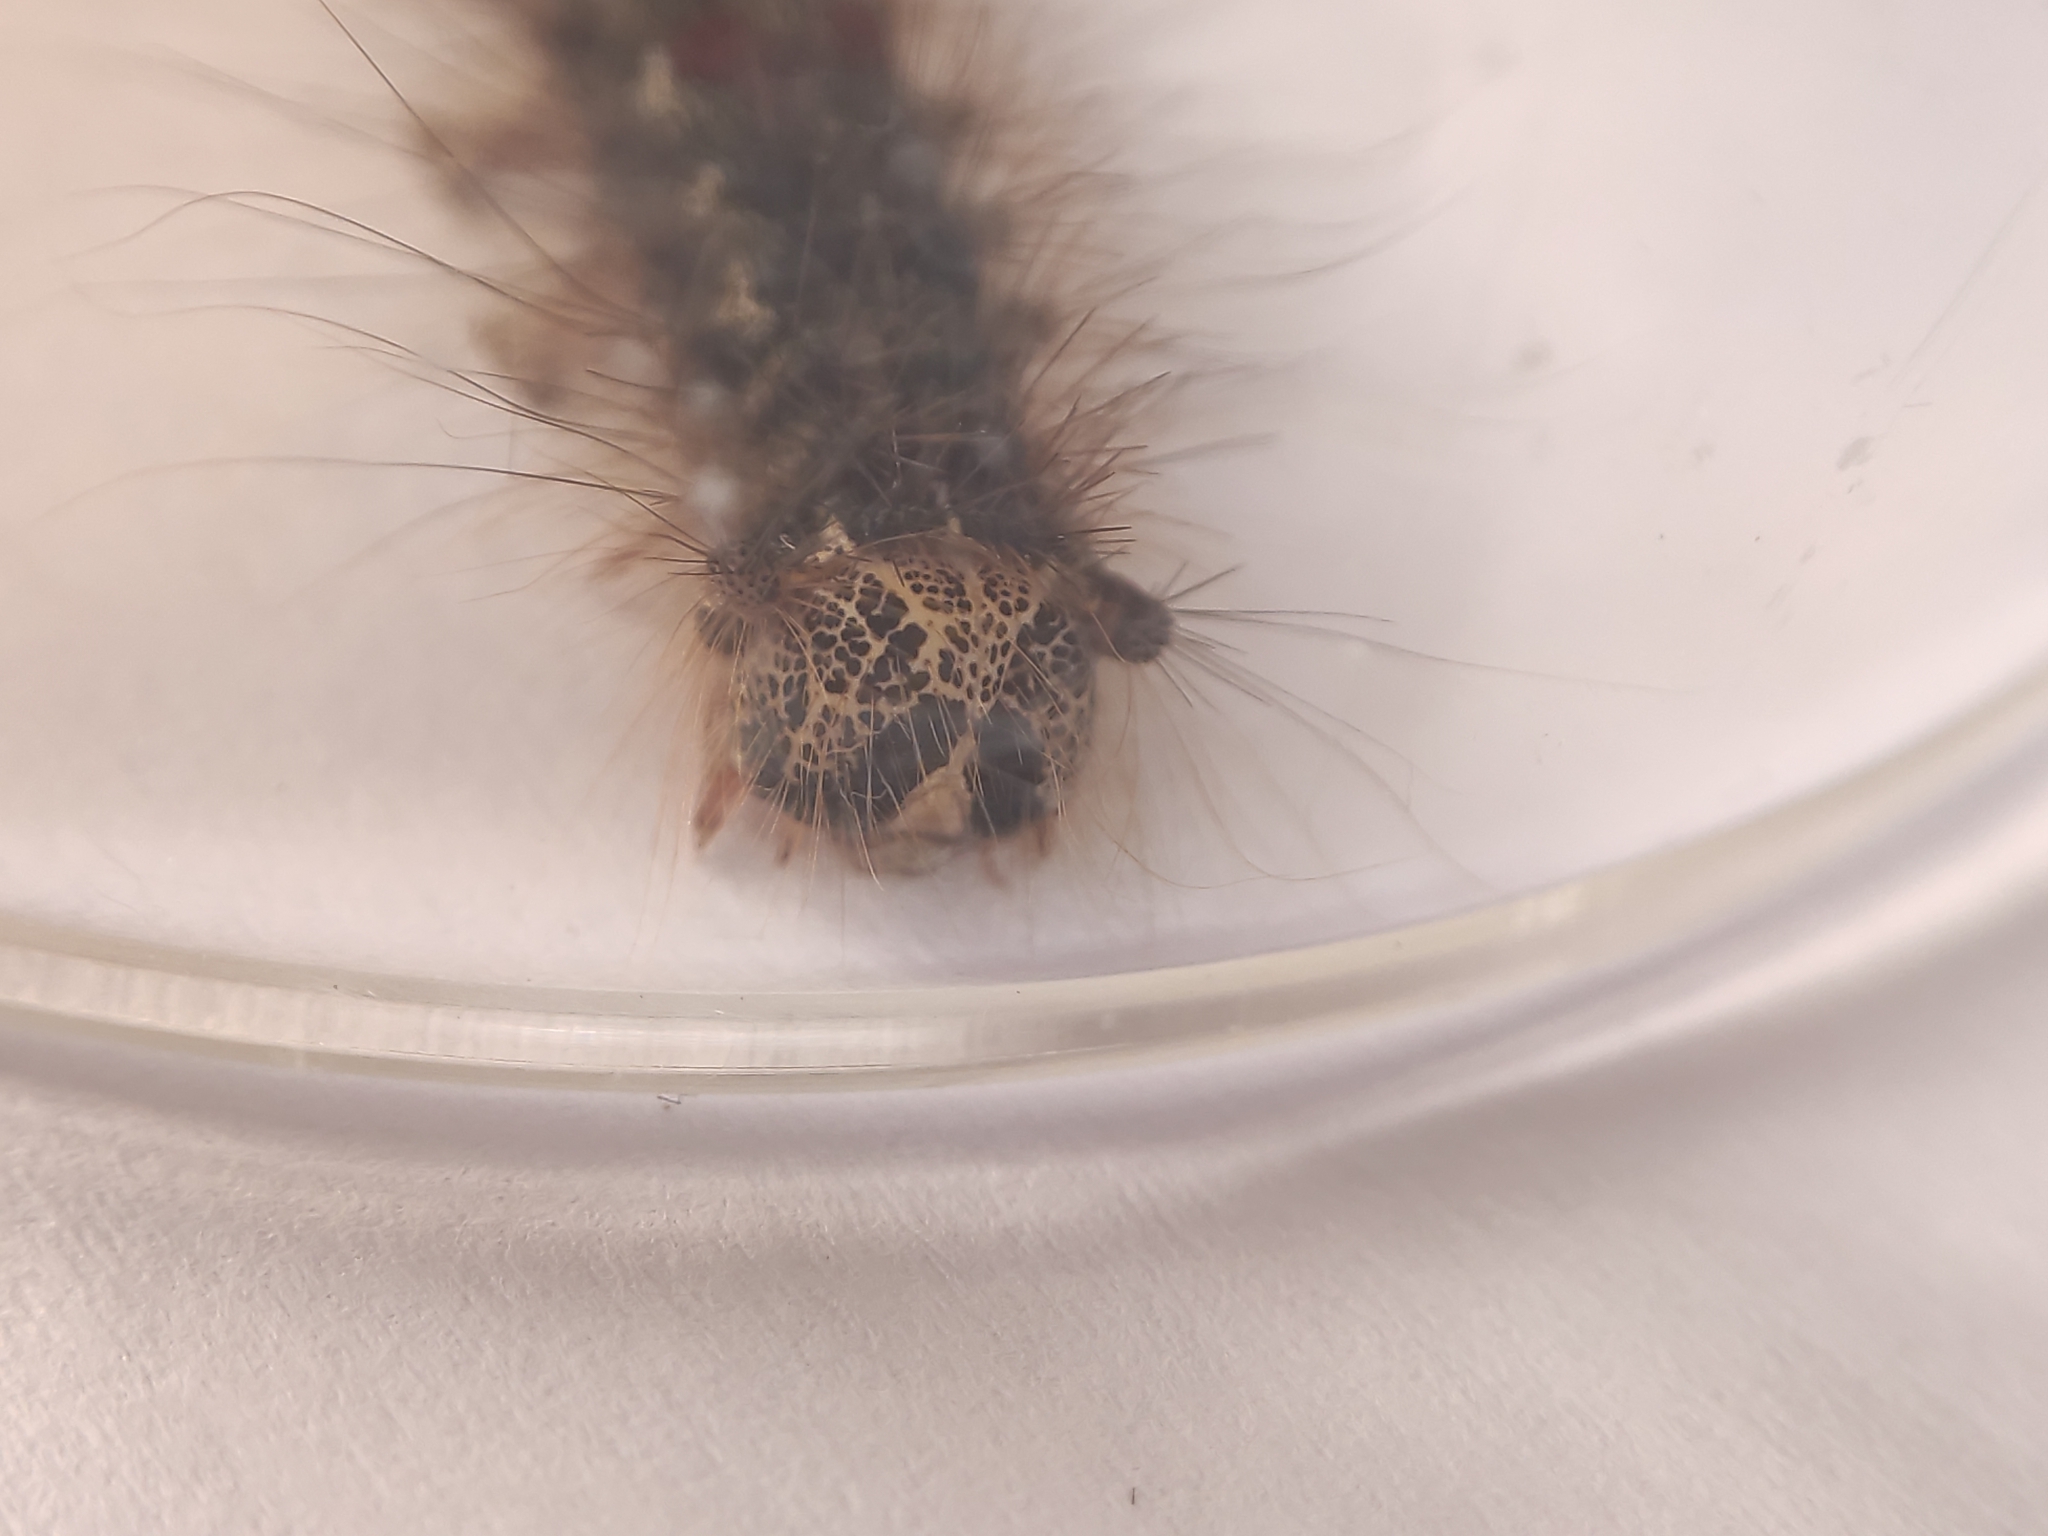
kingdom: Animalia
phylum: Arthropoda
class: Insecta
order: Lepidoptera
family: Erebidae
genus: Lymantria
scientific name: Lymantria dispar
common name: Gypsy moth
